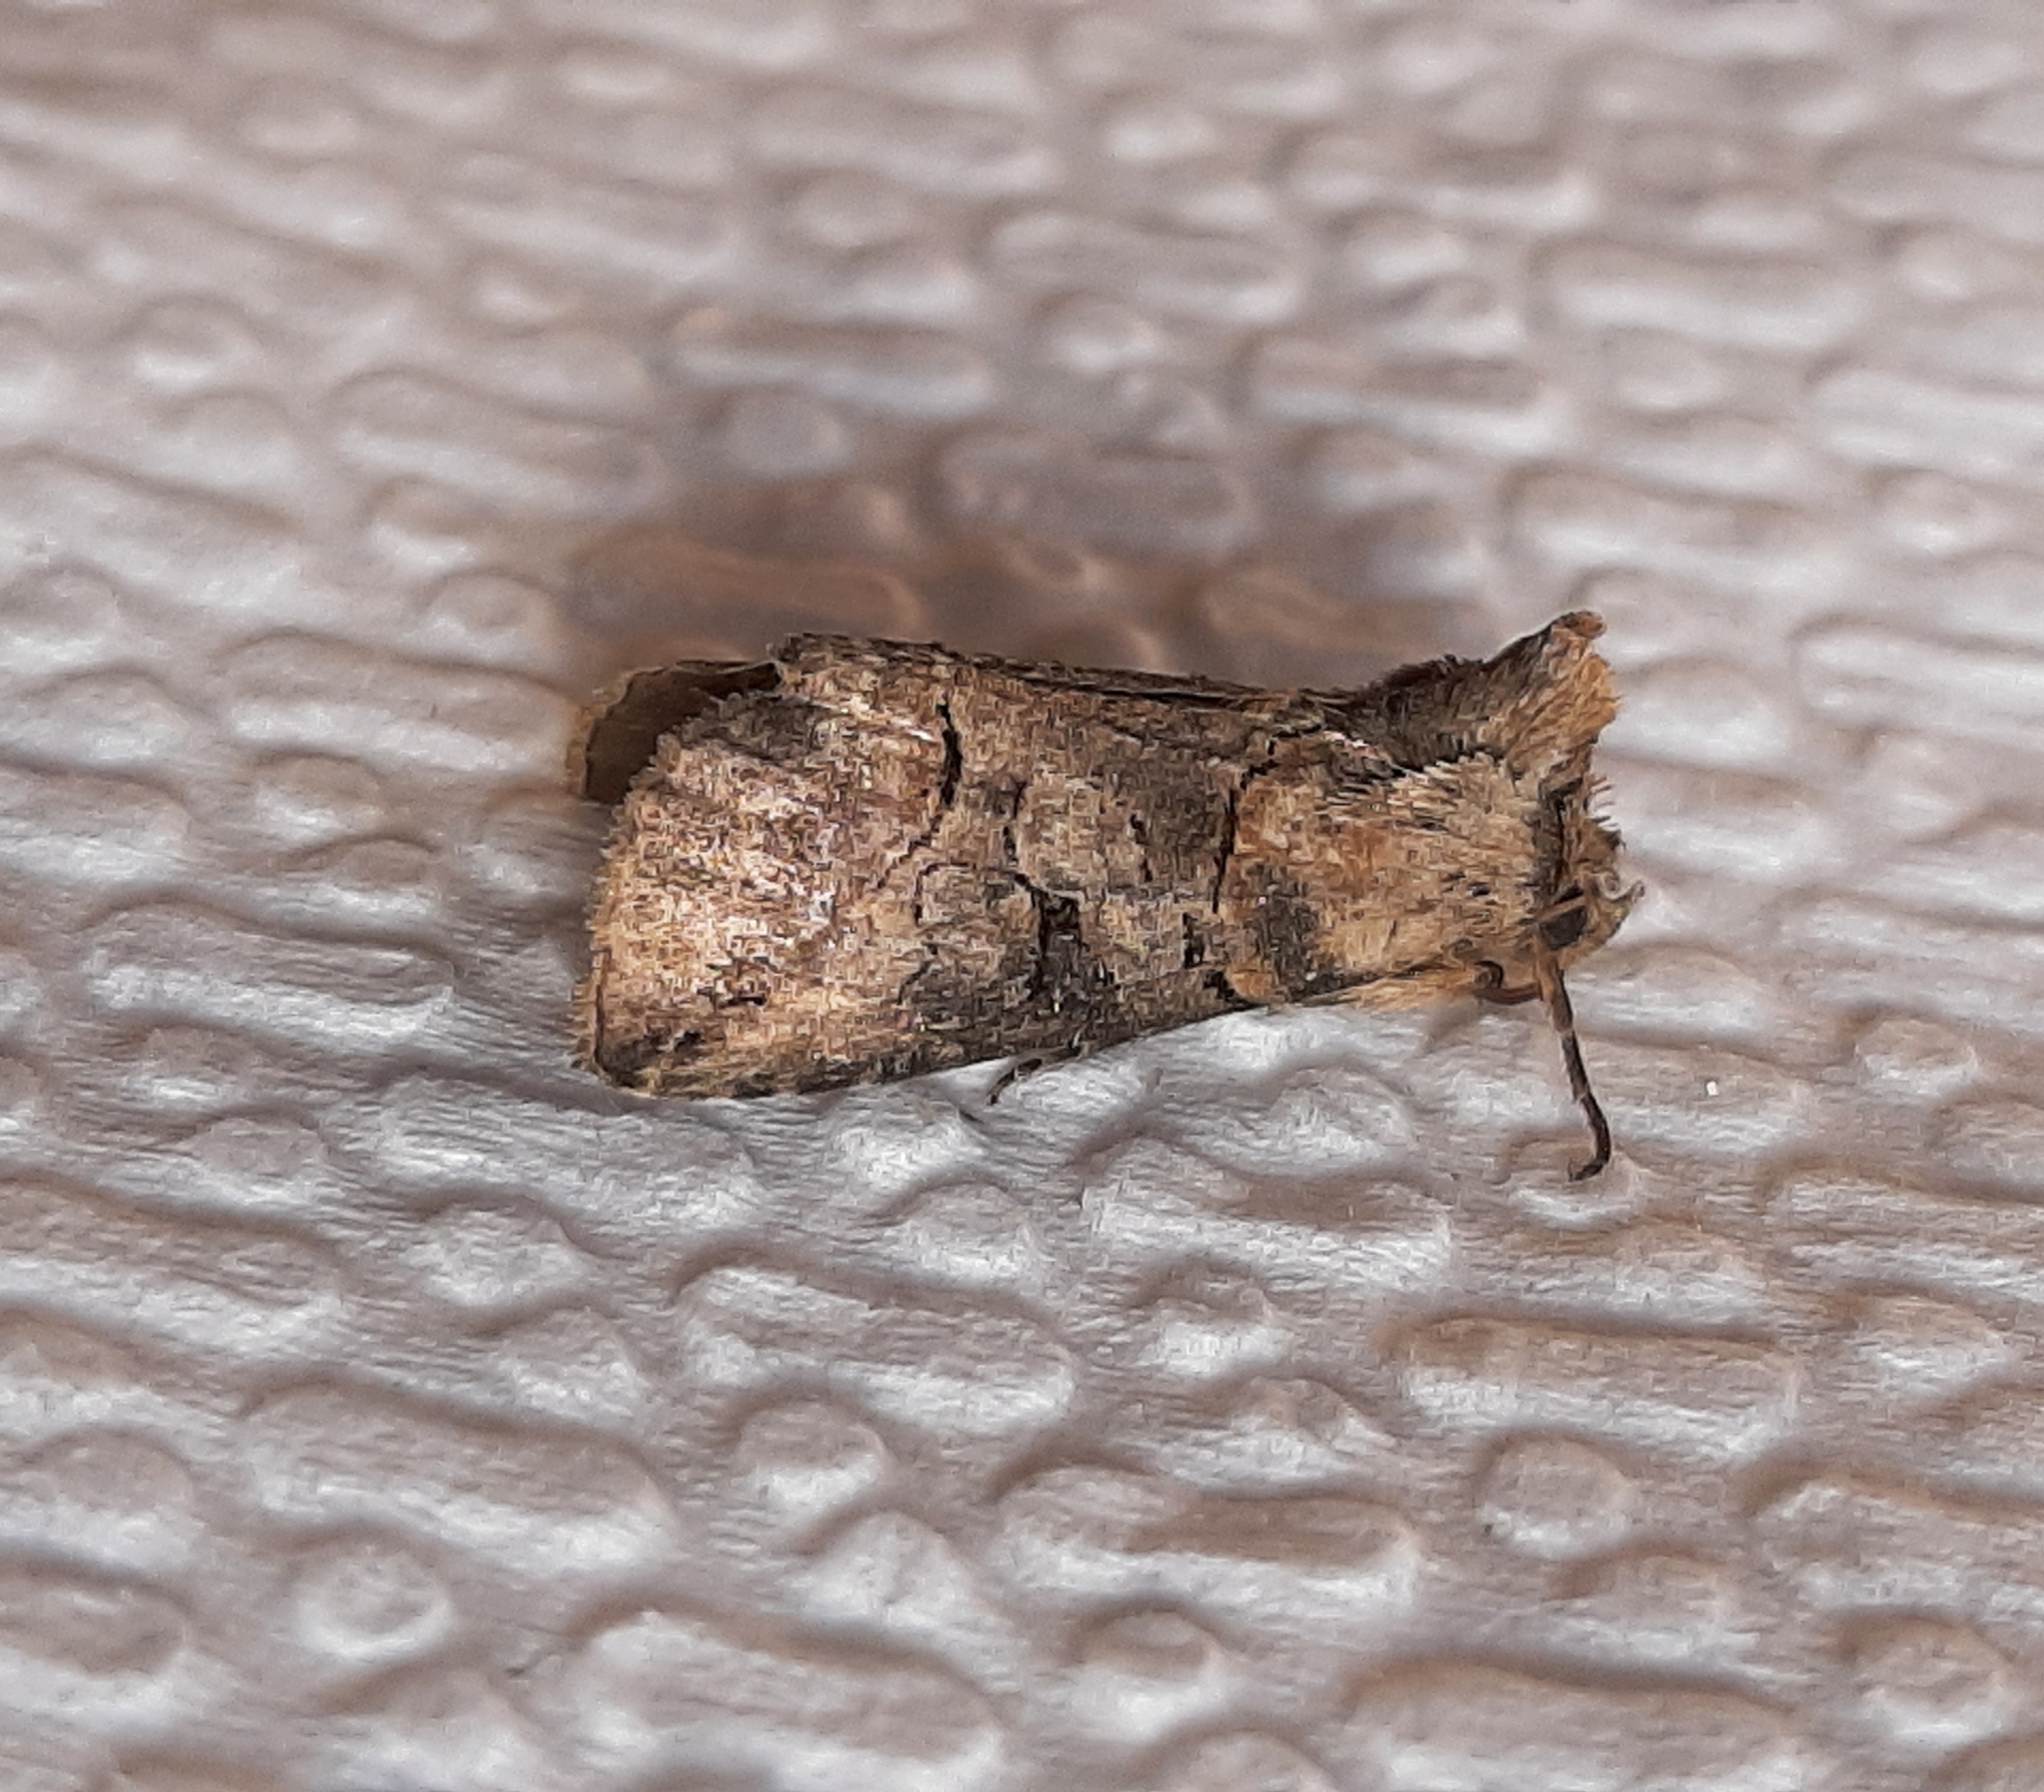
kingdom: Animalia
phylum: Arthropoda
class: Insecta
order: Lepidoptera
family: Noctuidae
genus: Abrostola
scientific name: Abrostola urentis
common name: Spectacled nettle moth
